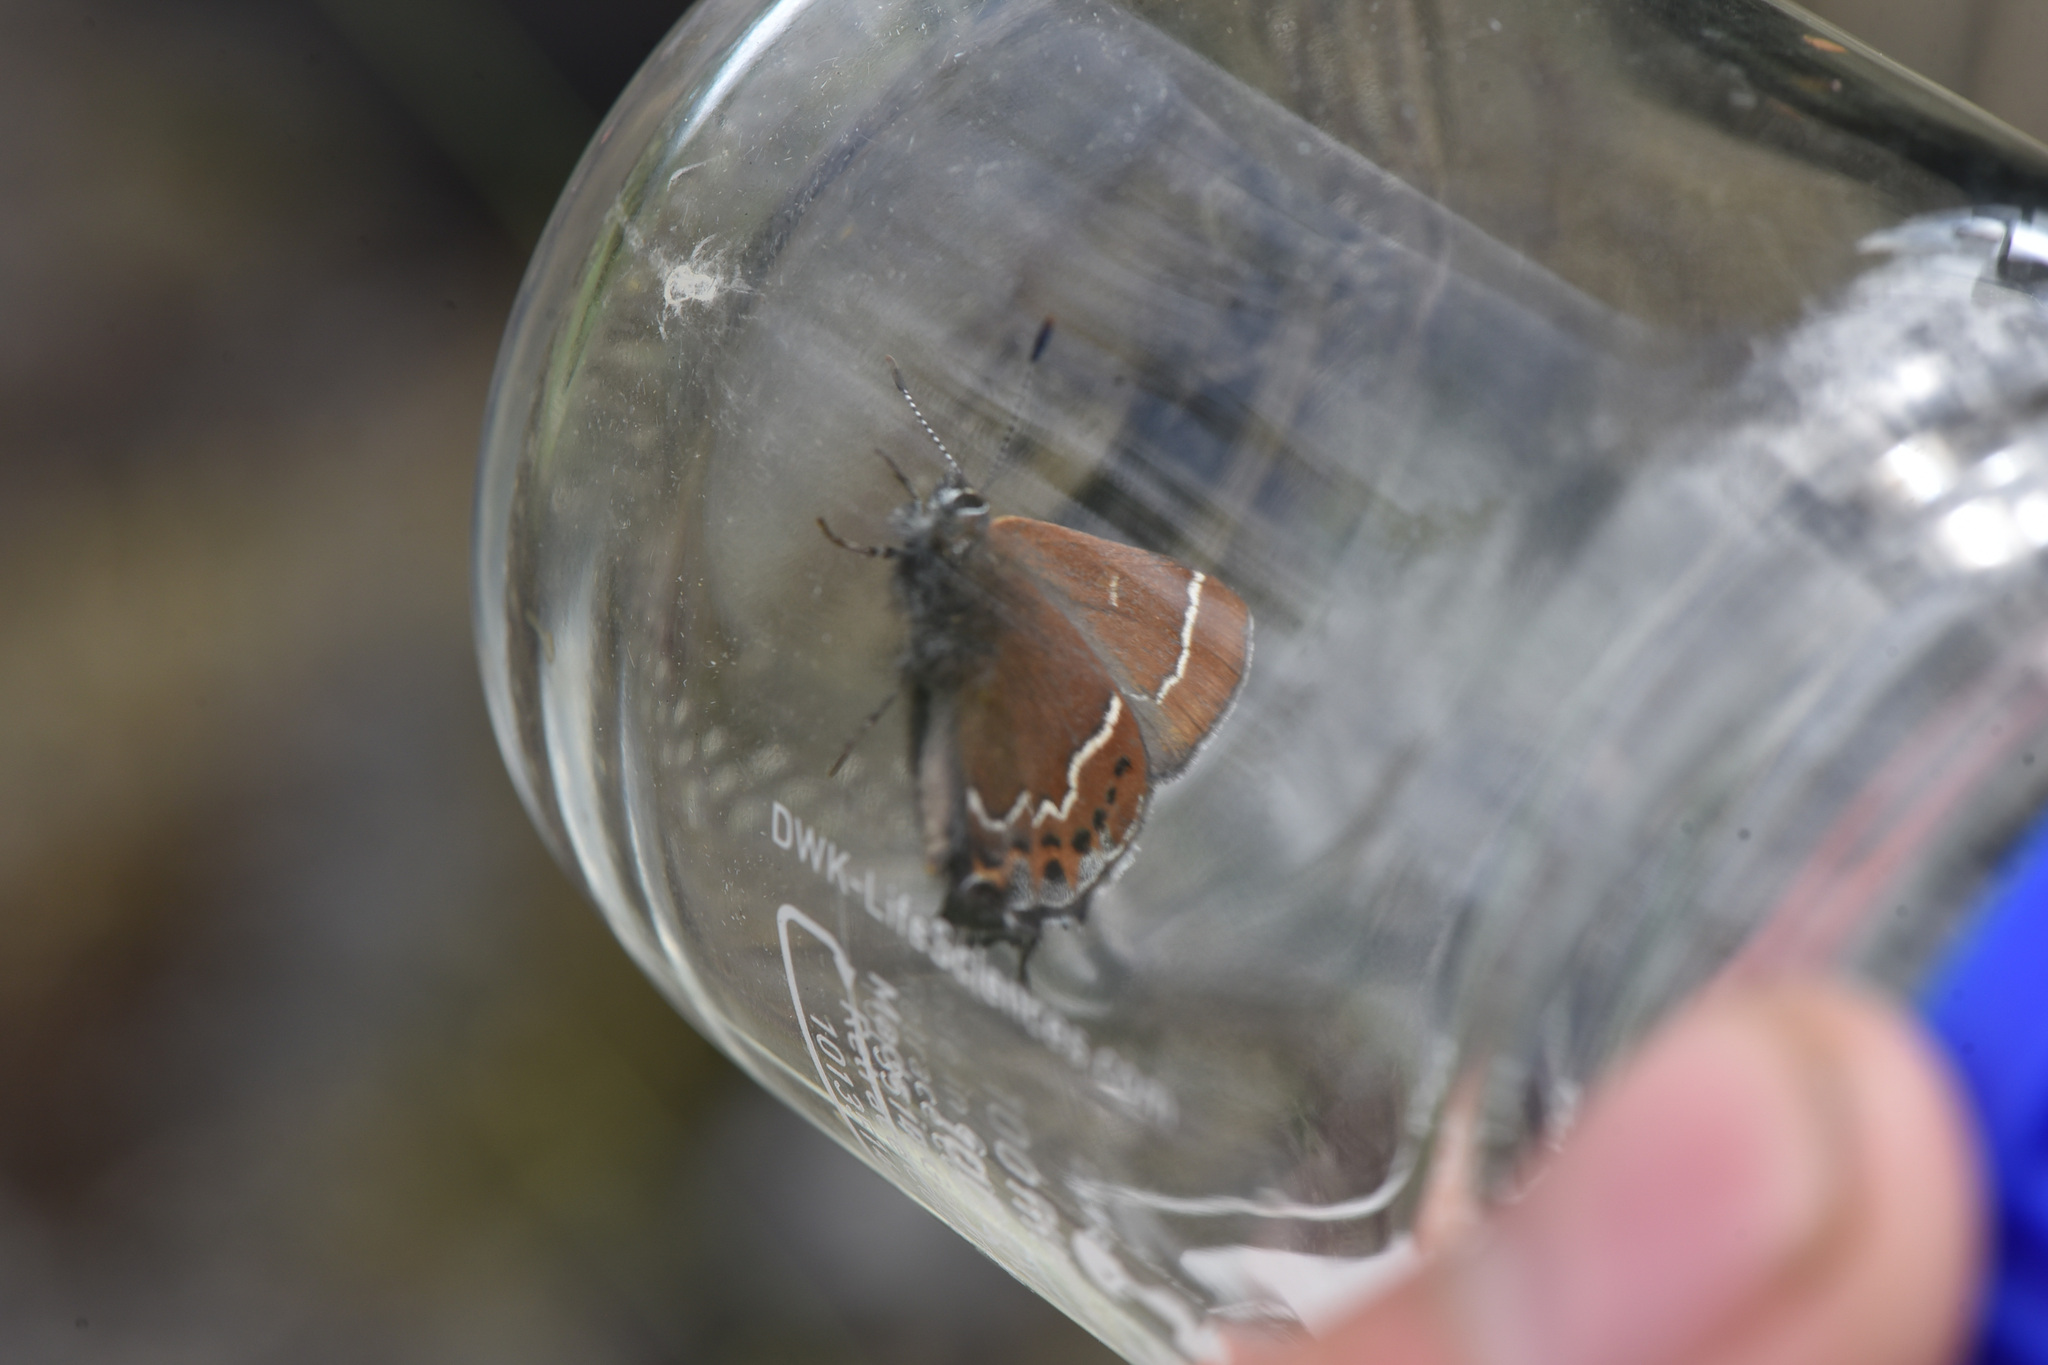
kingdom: Animalia
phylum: Arthropoda
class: Insecta
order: Lepidoptera
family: Lycaenidae
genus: Mitoura
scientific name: Mitoura spinetorum
